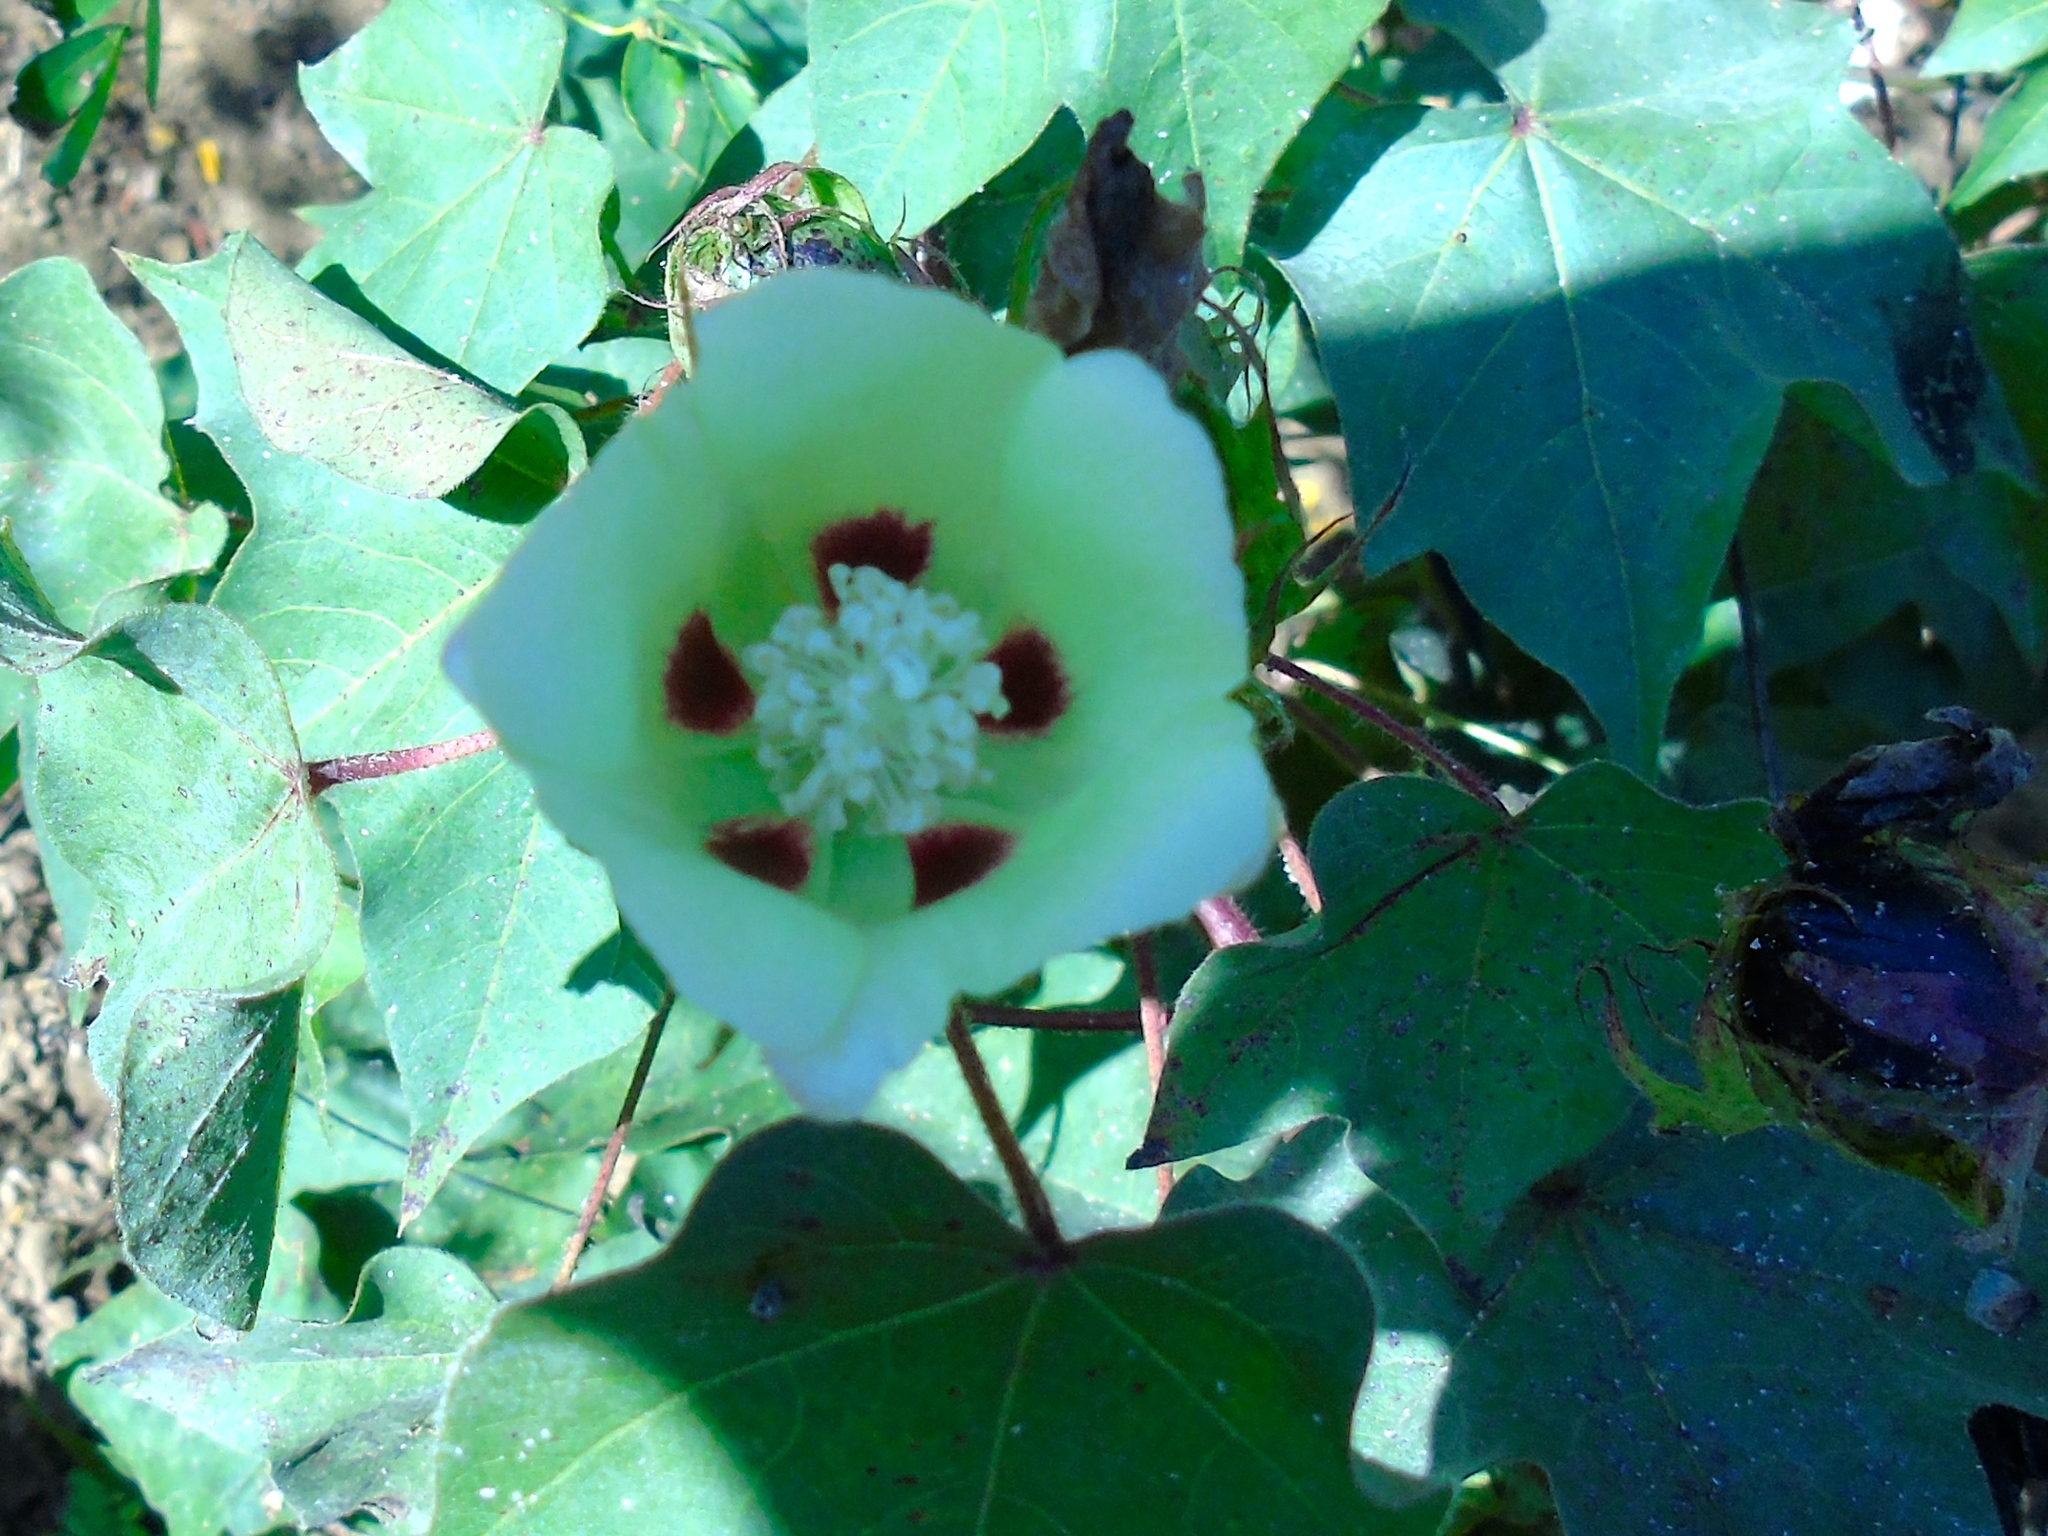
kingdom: Plantae
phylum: Tracheophyta
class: Magnoliopsida
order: Malvales
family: Malvaceae
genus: Gossypium
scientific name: Gossypium hirsutum
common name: Cotton
